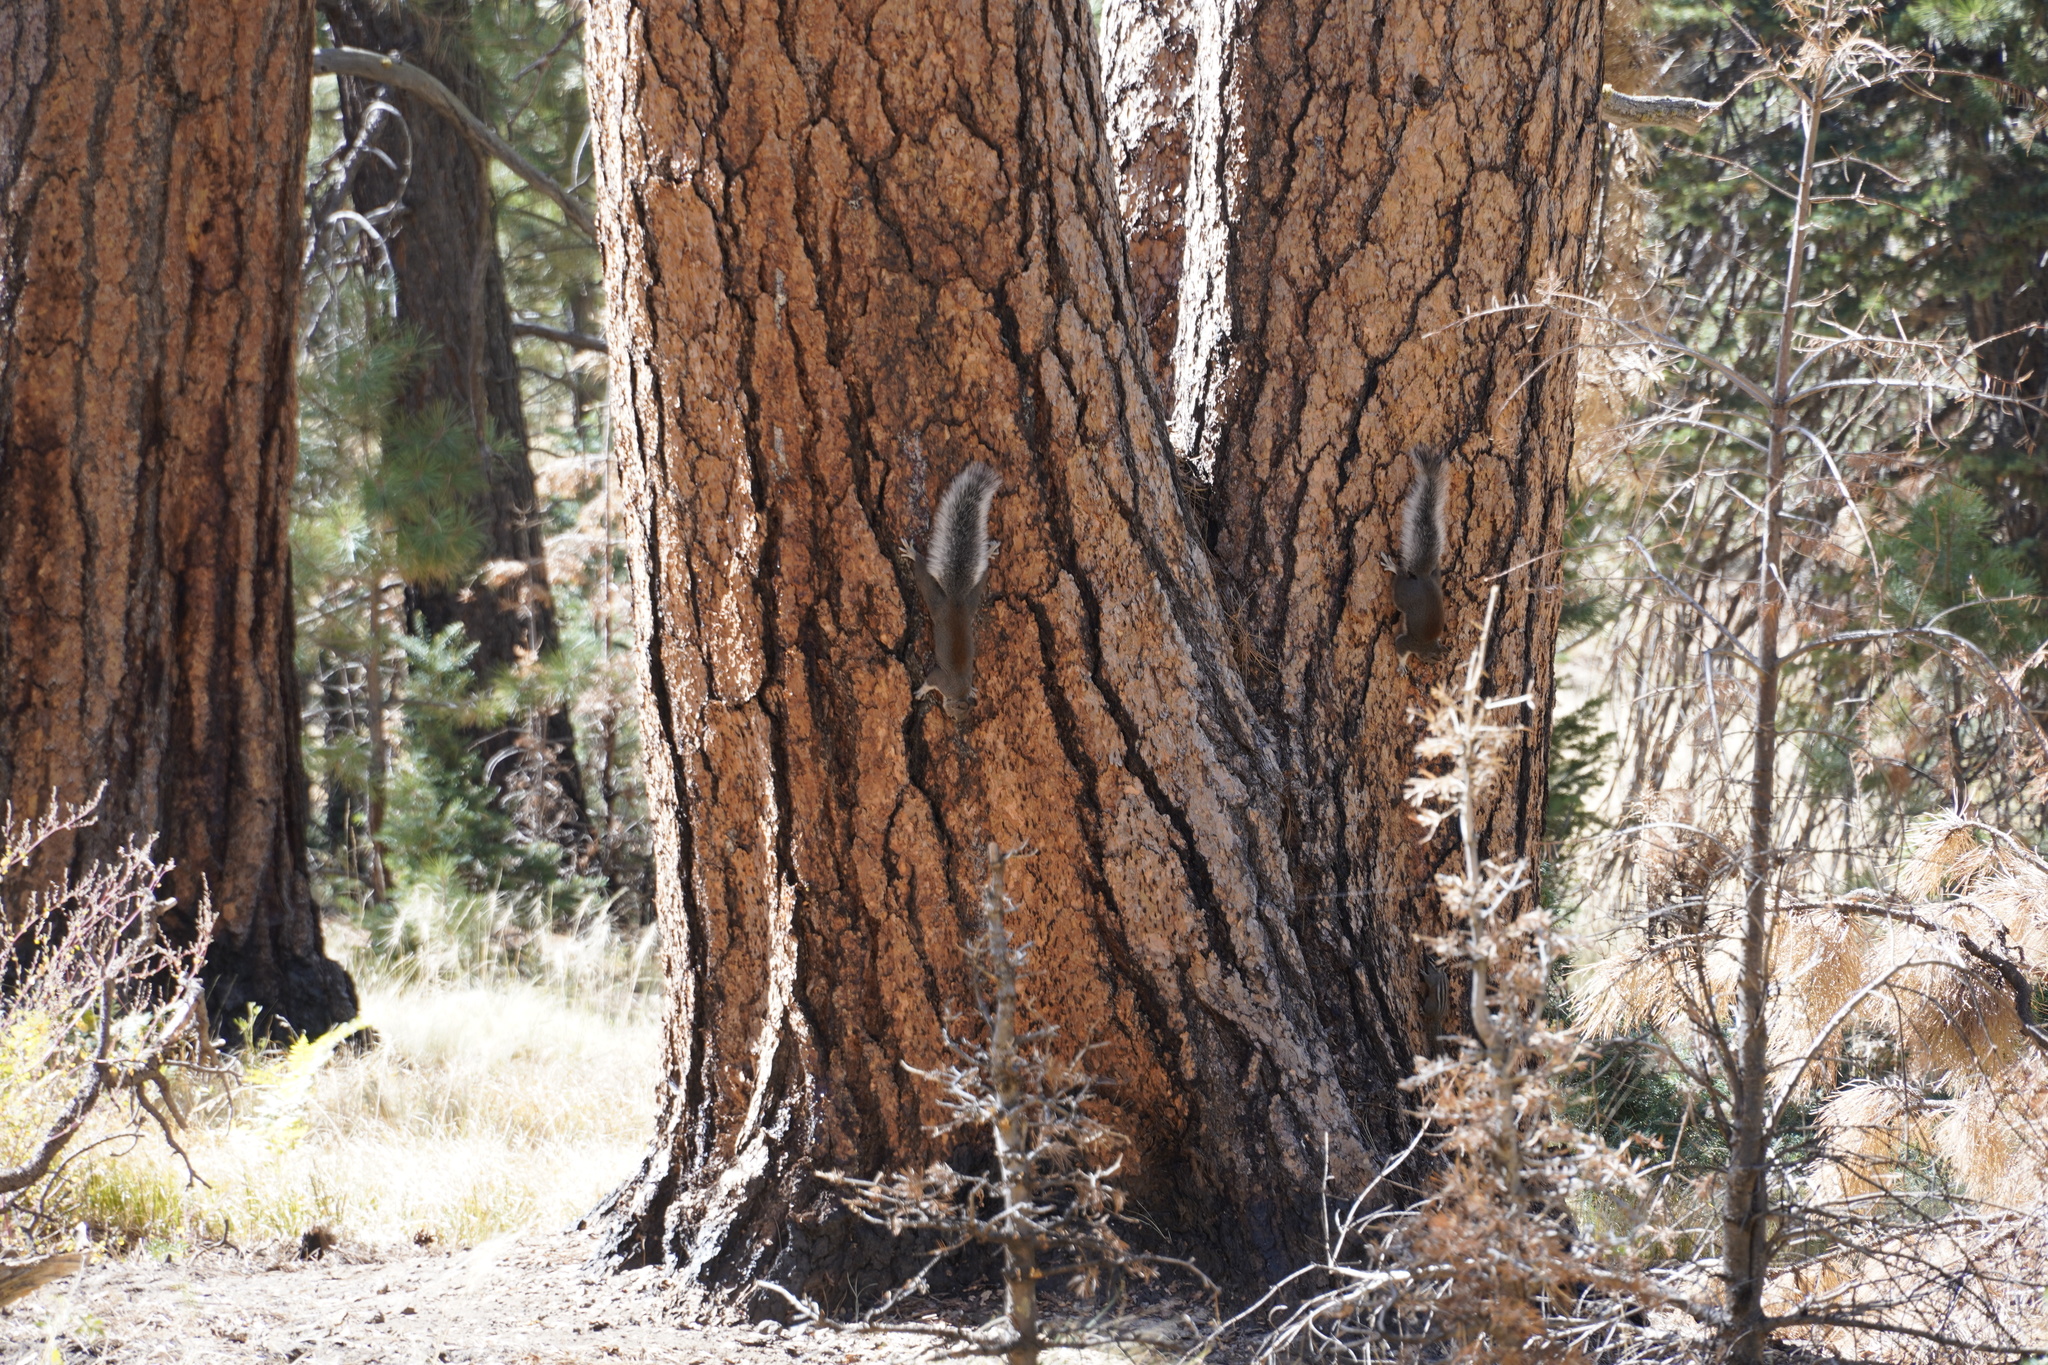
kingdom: Animalia
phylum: Chordata
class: Mammalia
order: Rodentia
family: Sciuridae
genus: Sciurus
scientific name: Sciurus aberti
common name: Abert's squirrel
